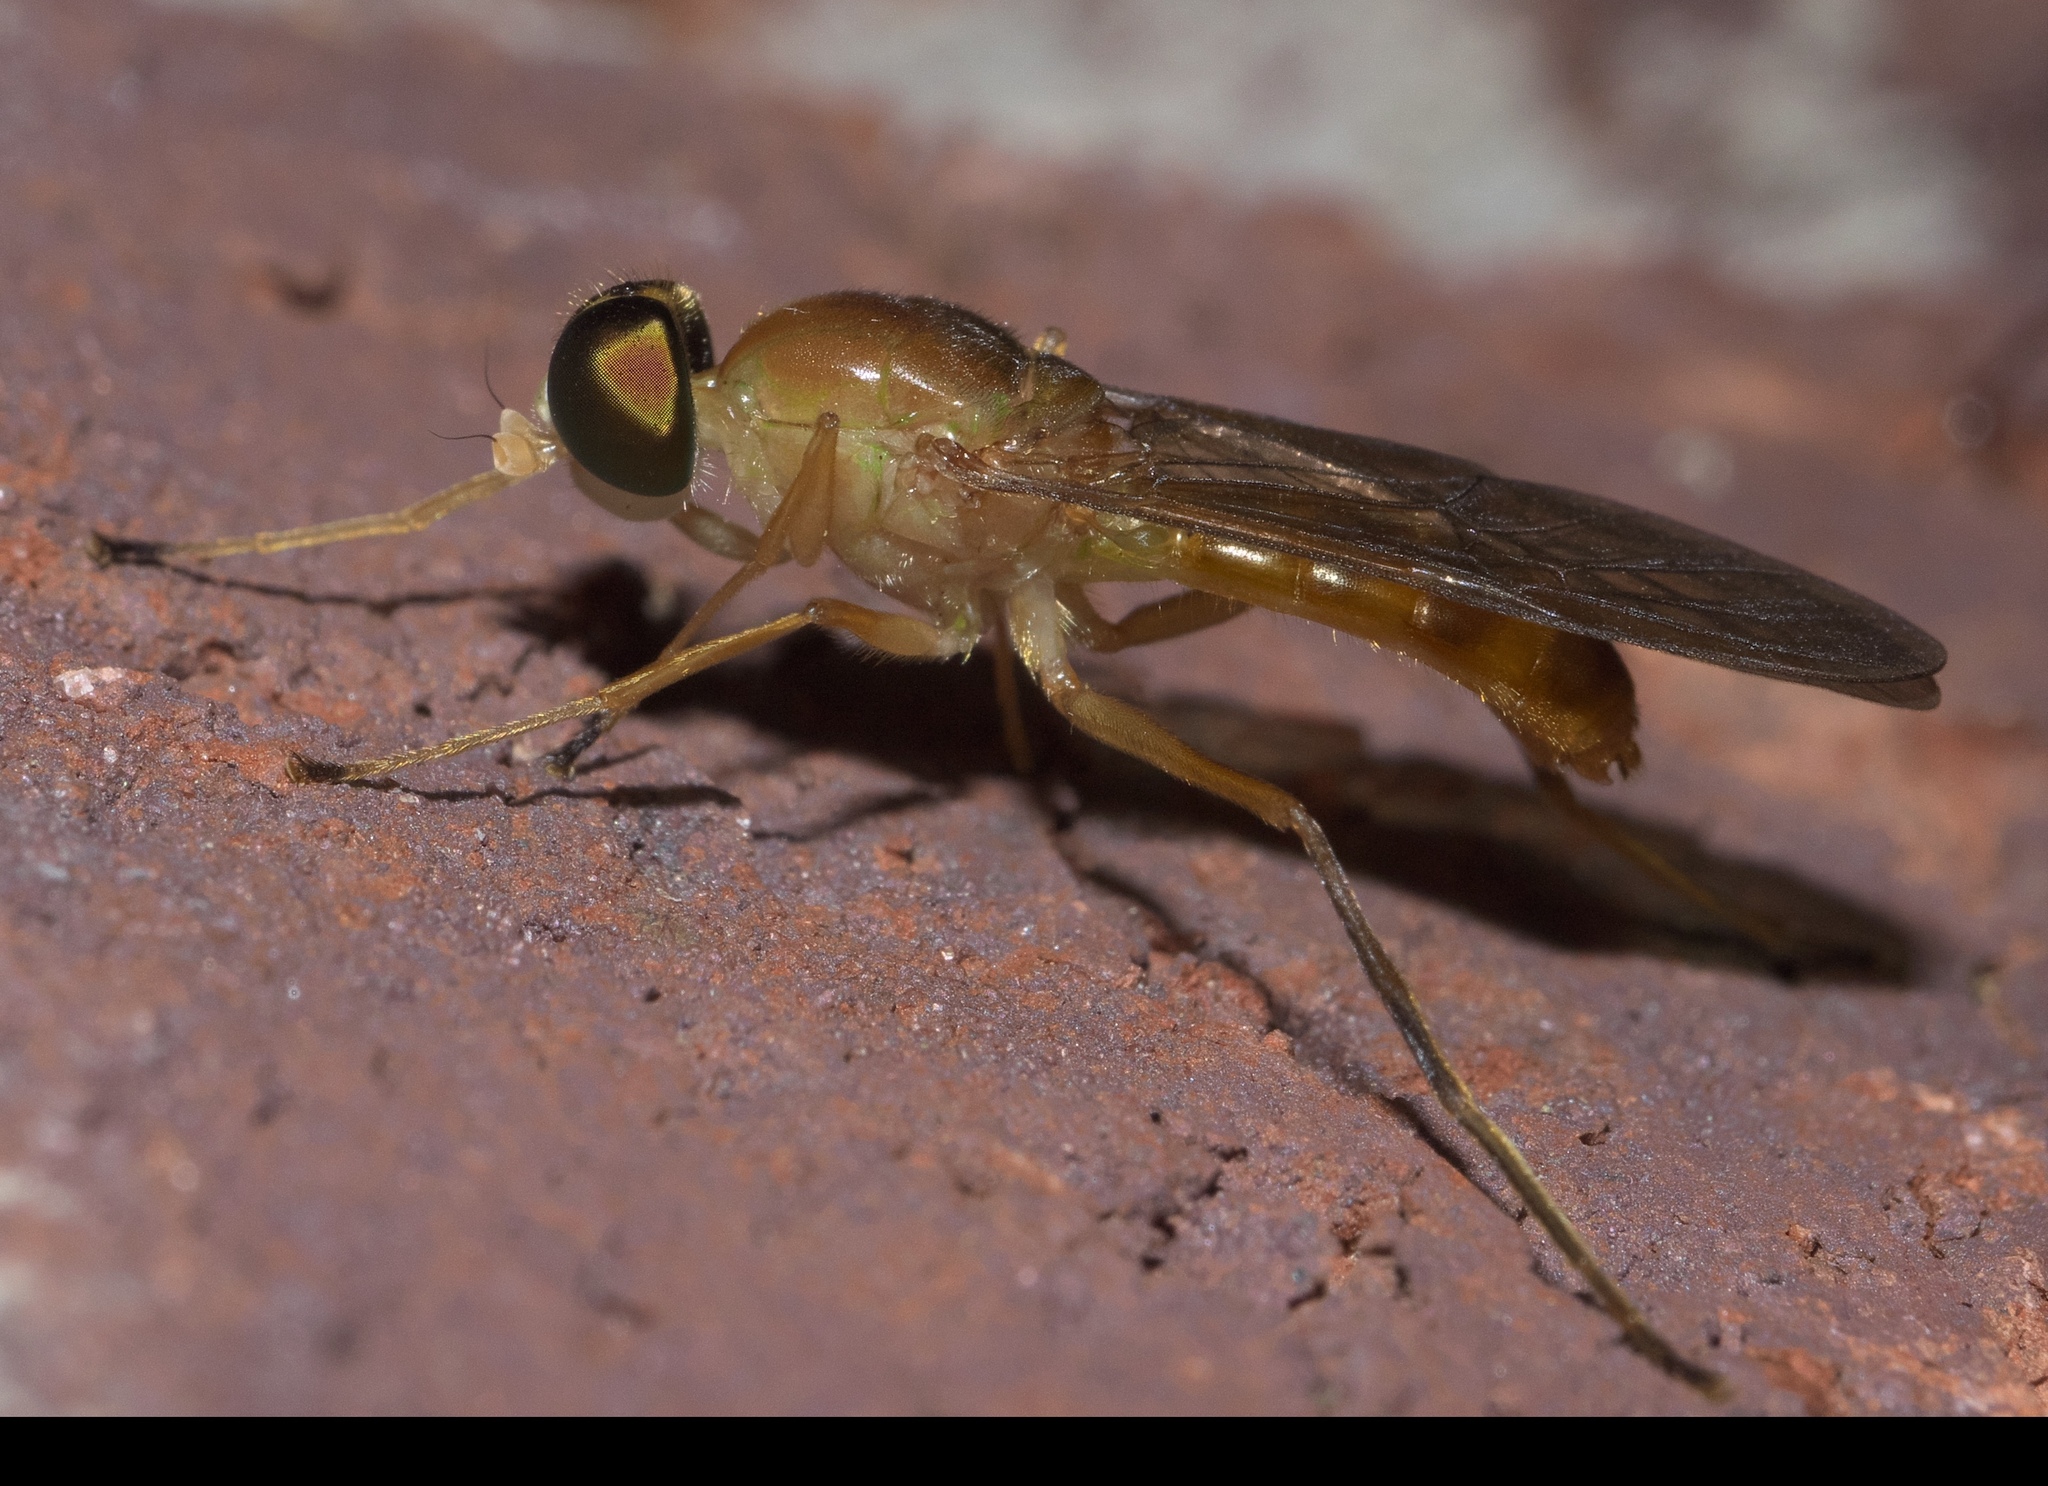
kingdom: Animalia
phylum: Arthropoda
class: Insecta
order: Diptera
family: Stratiomyidae
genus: Ptecticus
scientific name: Ptecticus trivittatus
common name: Compost fly
